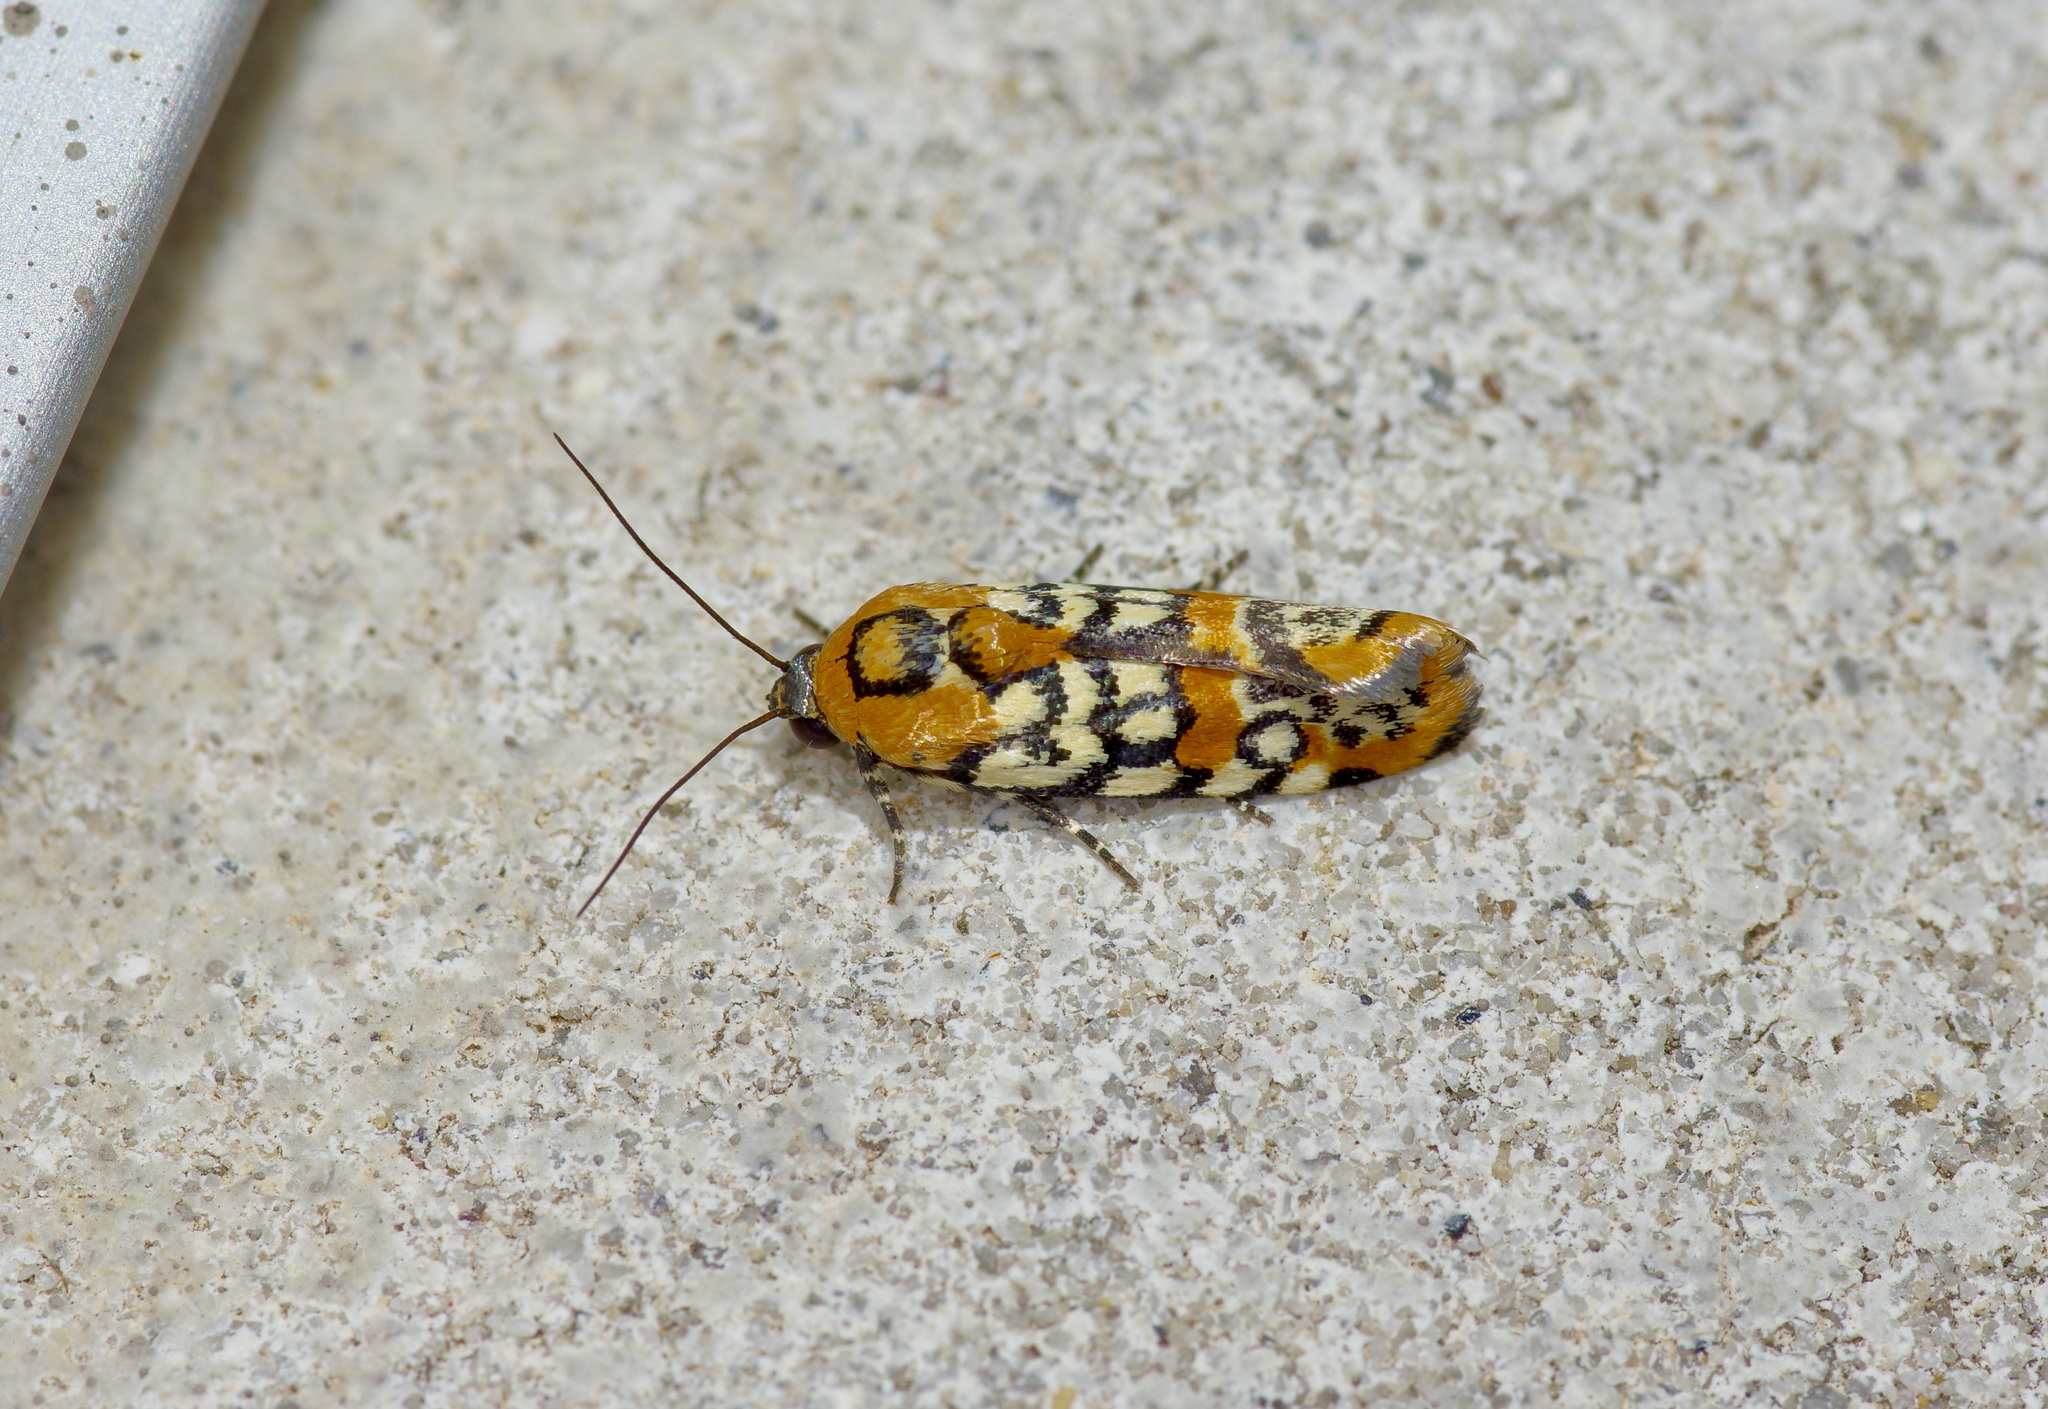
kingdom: Animalia
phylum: Arthropoda
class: Insecta
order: Lepidoptera
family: Noctuidae
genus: Spragueia
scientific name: Spragueia guttata
